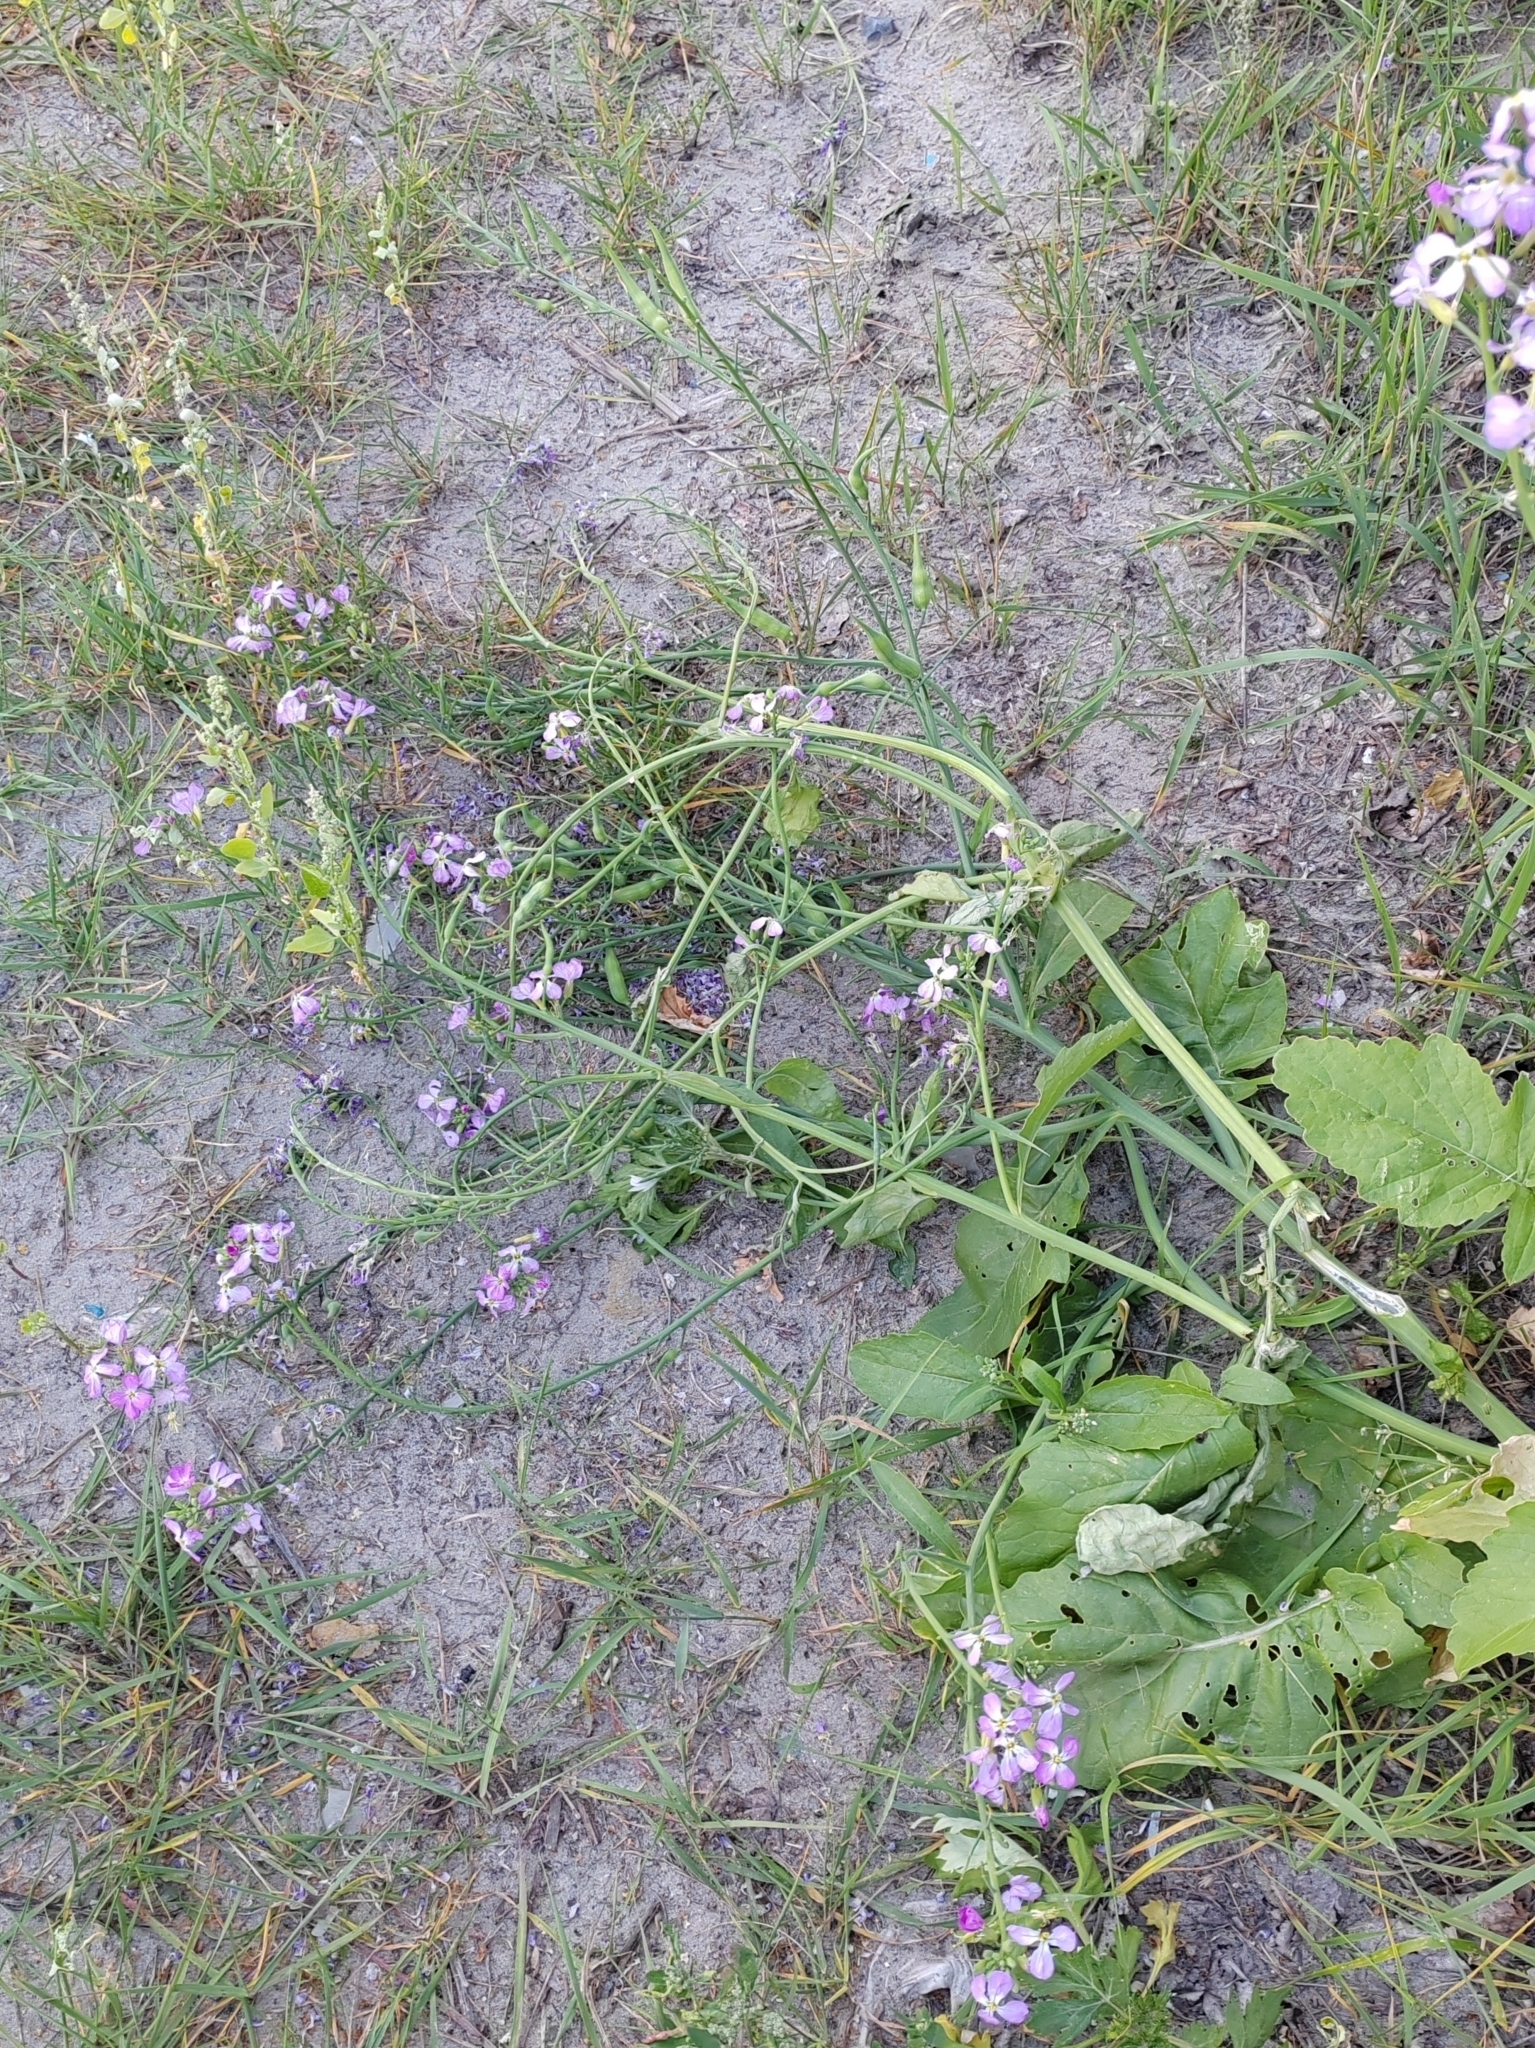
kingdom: Plantae
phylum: Tracheophyta
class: Magnoliopsida
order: Brassicales
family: Brassicaceae
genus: Raphanus
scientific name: Raphanus sativus
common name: Cultivated radish
